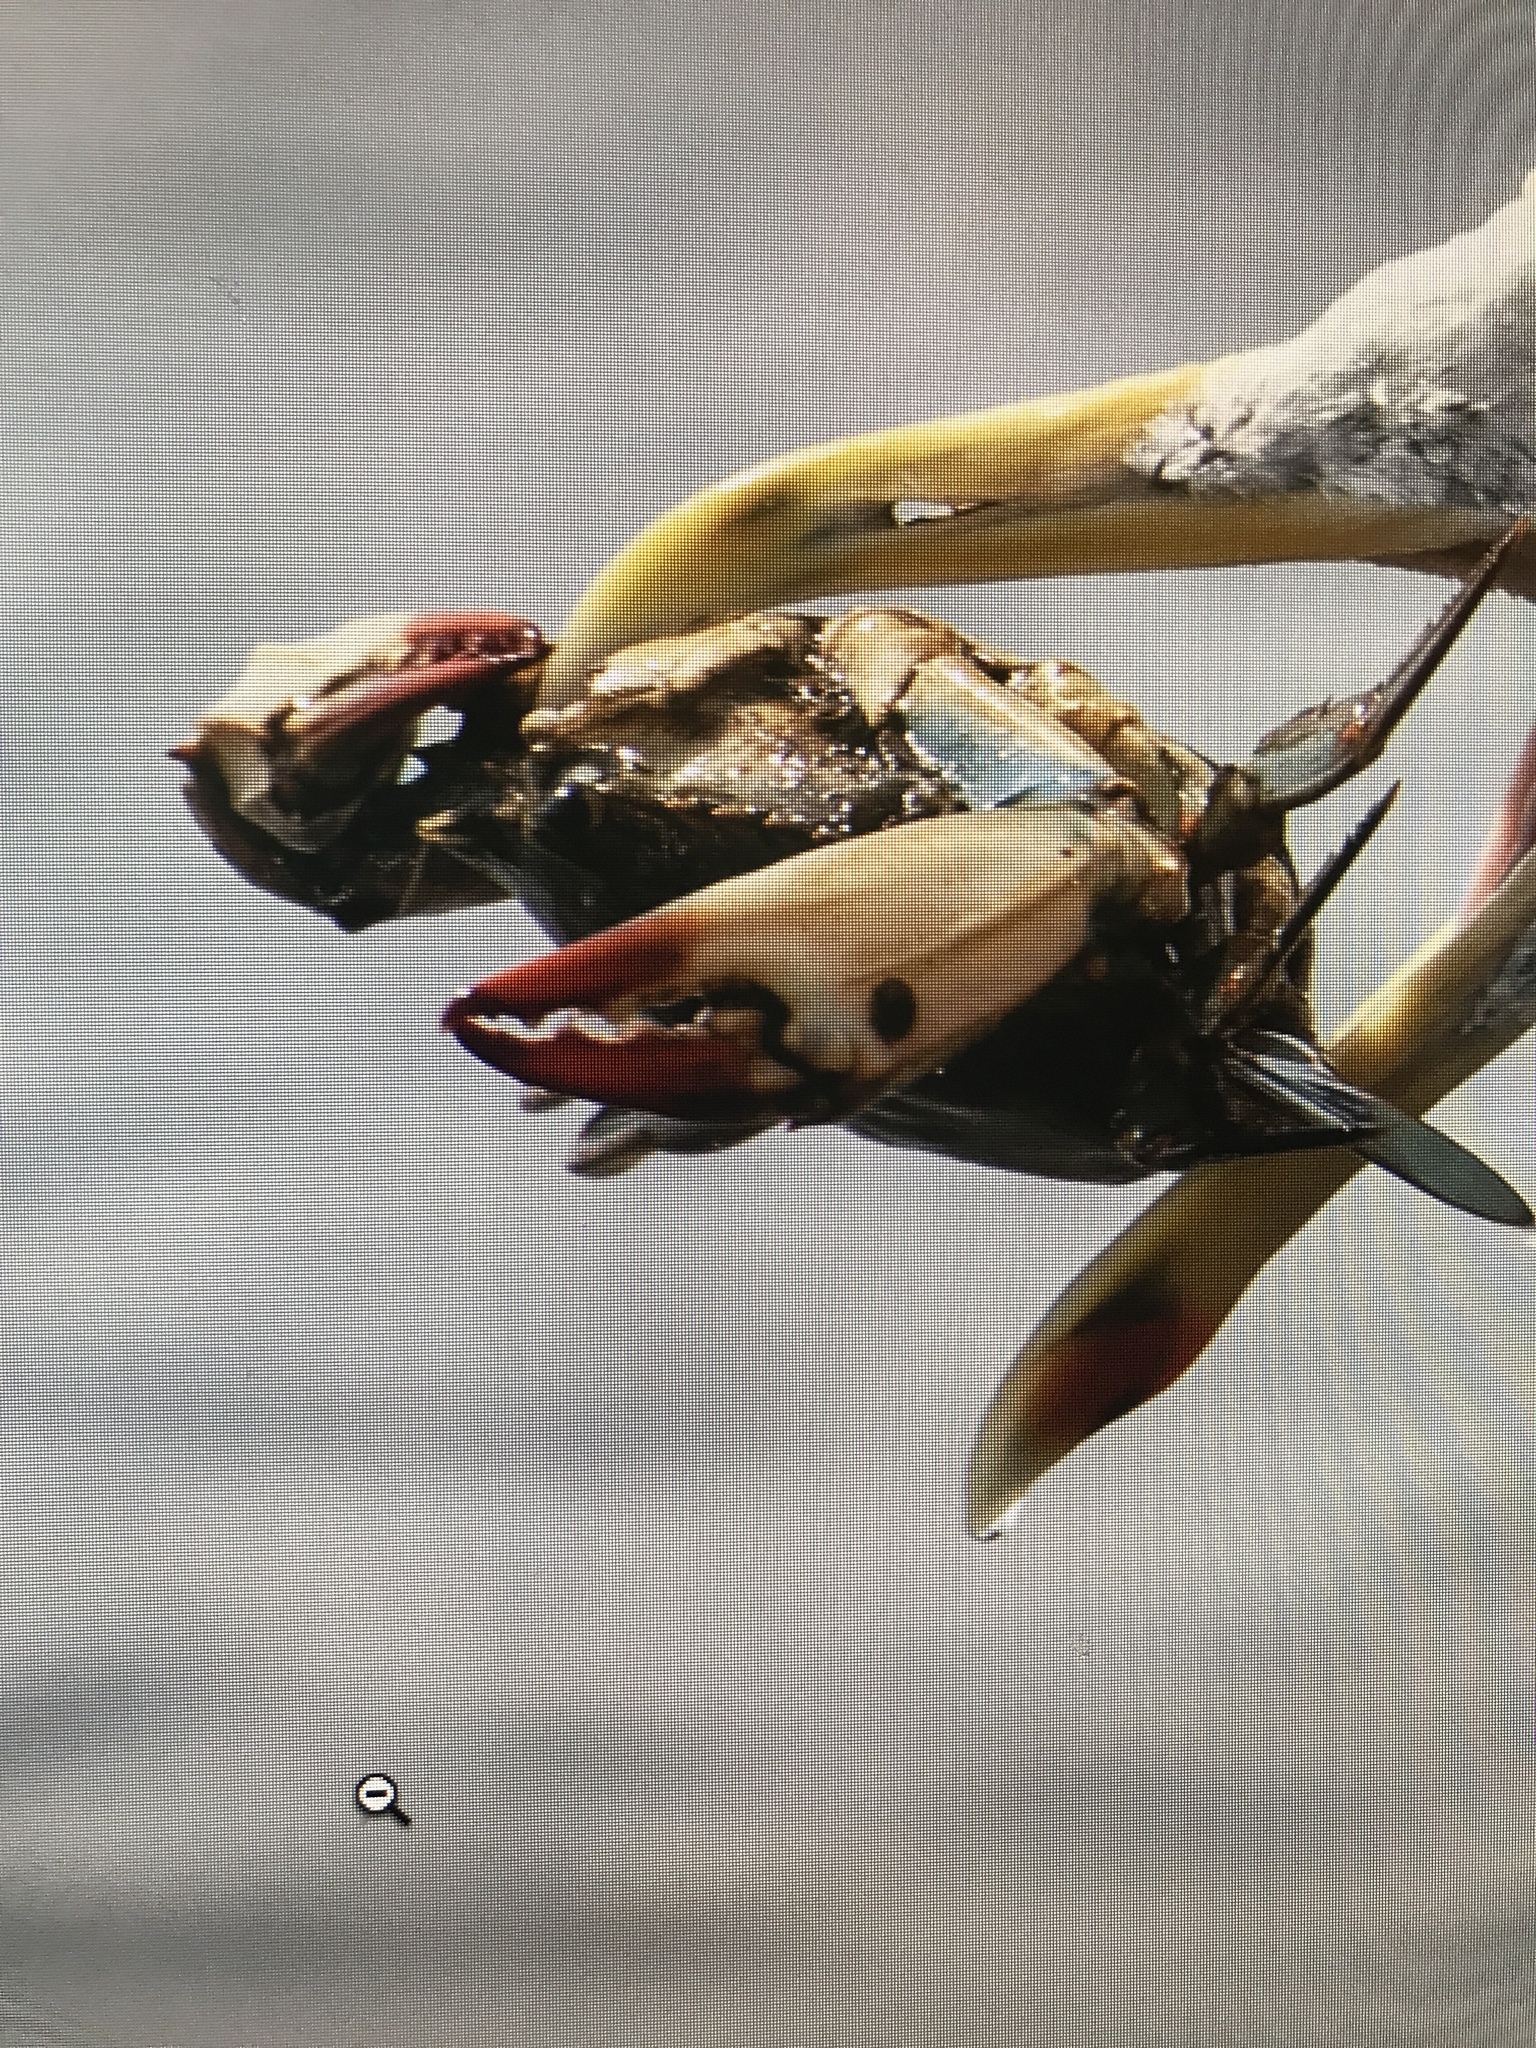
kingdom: Animalia
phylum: Arthropoda
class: Malacostraca
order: Decapoda
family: Portunidae
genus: Callinectes
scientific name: Callinectes sapidus
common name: Blue crab
